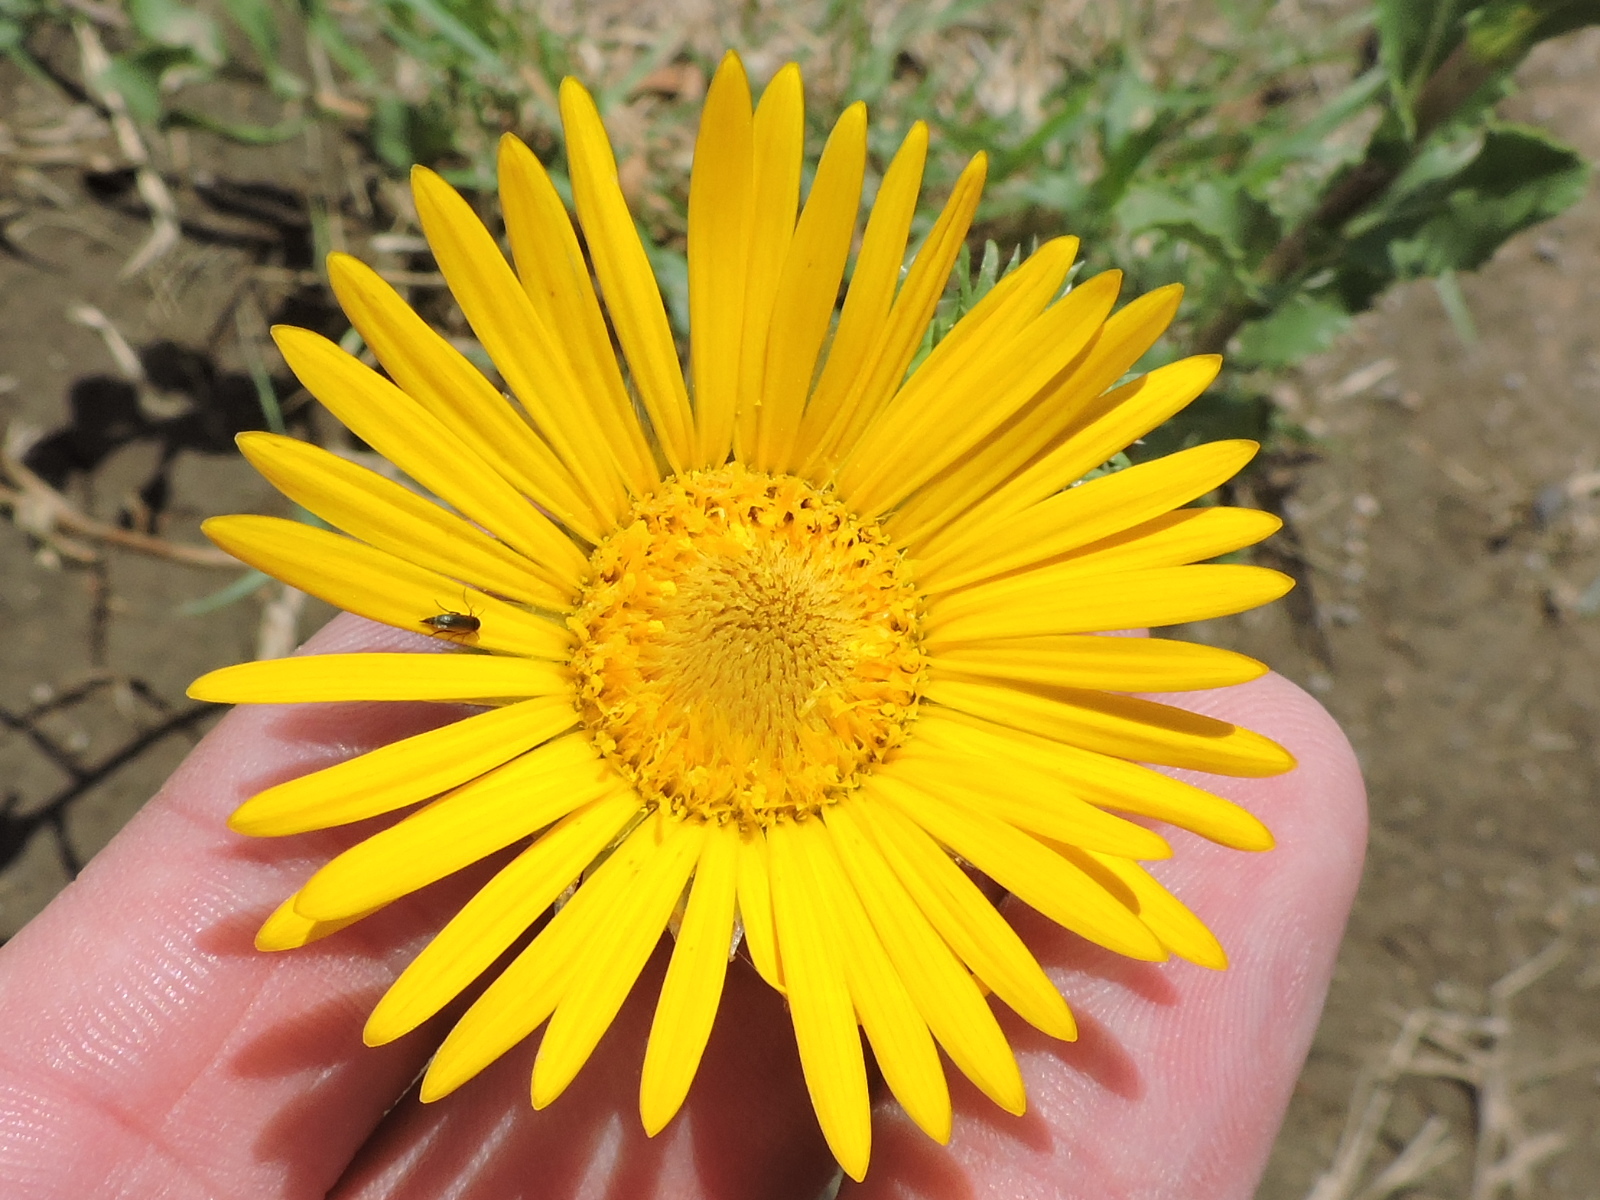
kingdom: Plantae
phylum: Tracheophyta
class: Magnoliopsida
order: Asterales
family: Asteraceae
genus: Grindelia
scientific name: Grindelia ciliata
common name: Goldenweed
